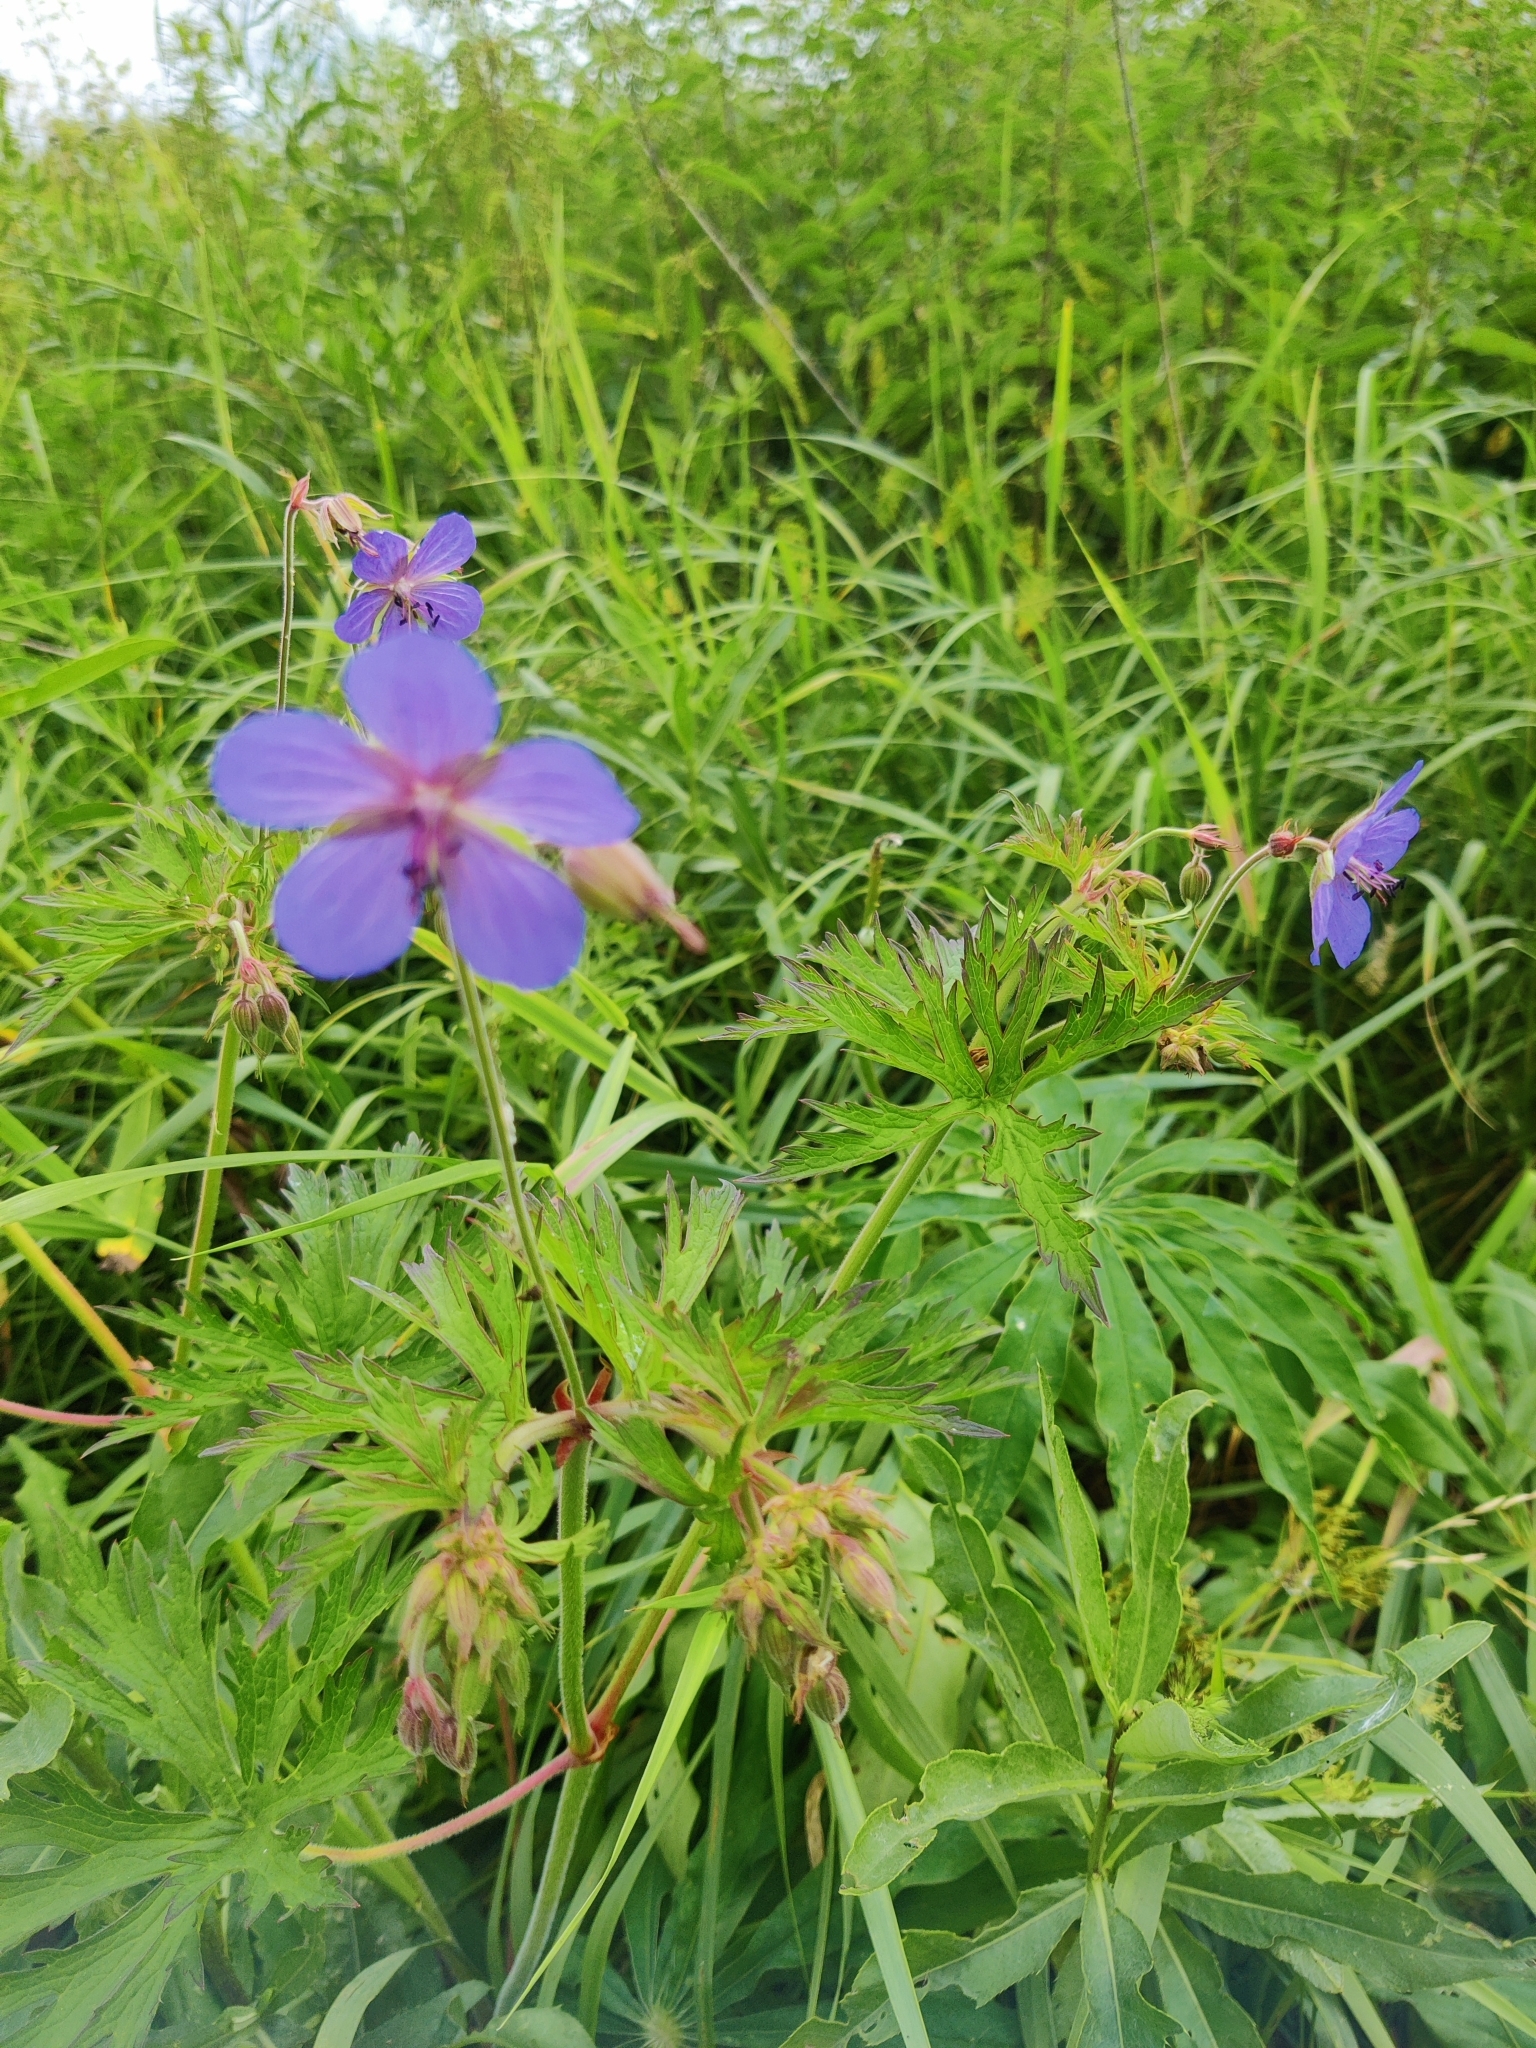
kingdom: Plantae
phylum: Tracheophyta
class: Magnoliopsida
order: Geraniales
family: Geraniaceae
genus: Geranium
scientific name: Geranium pratense
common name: Meadow crane's-bill
